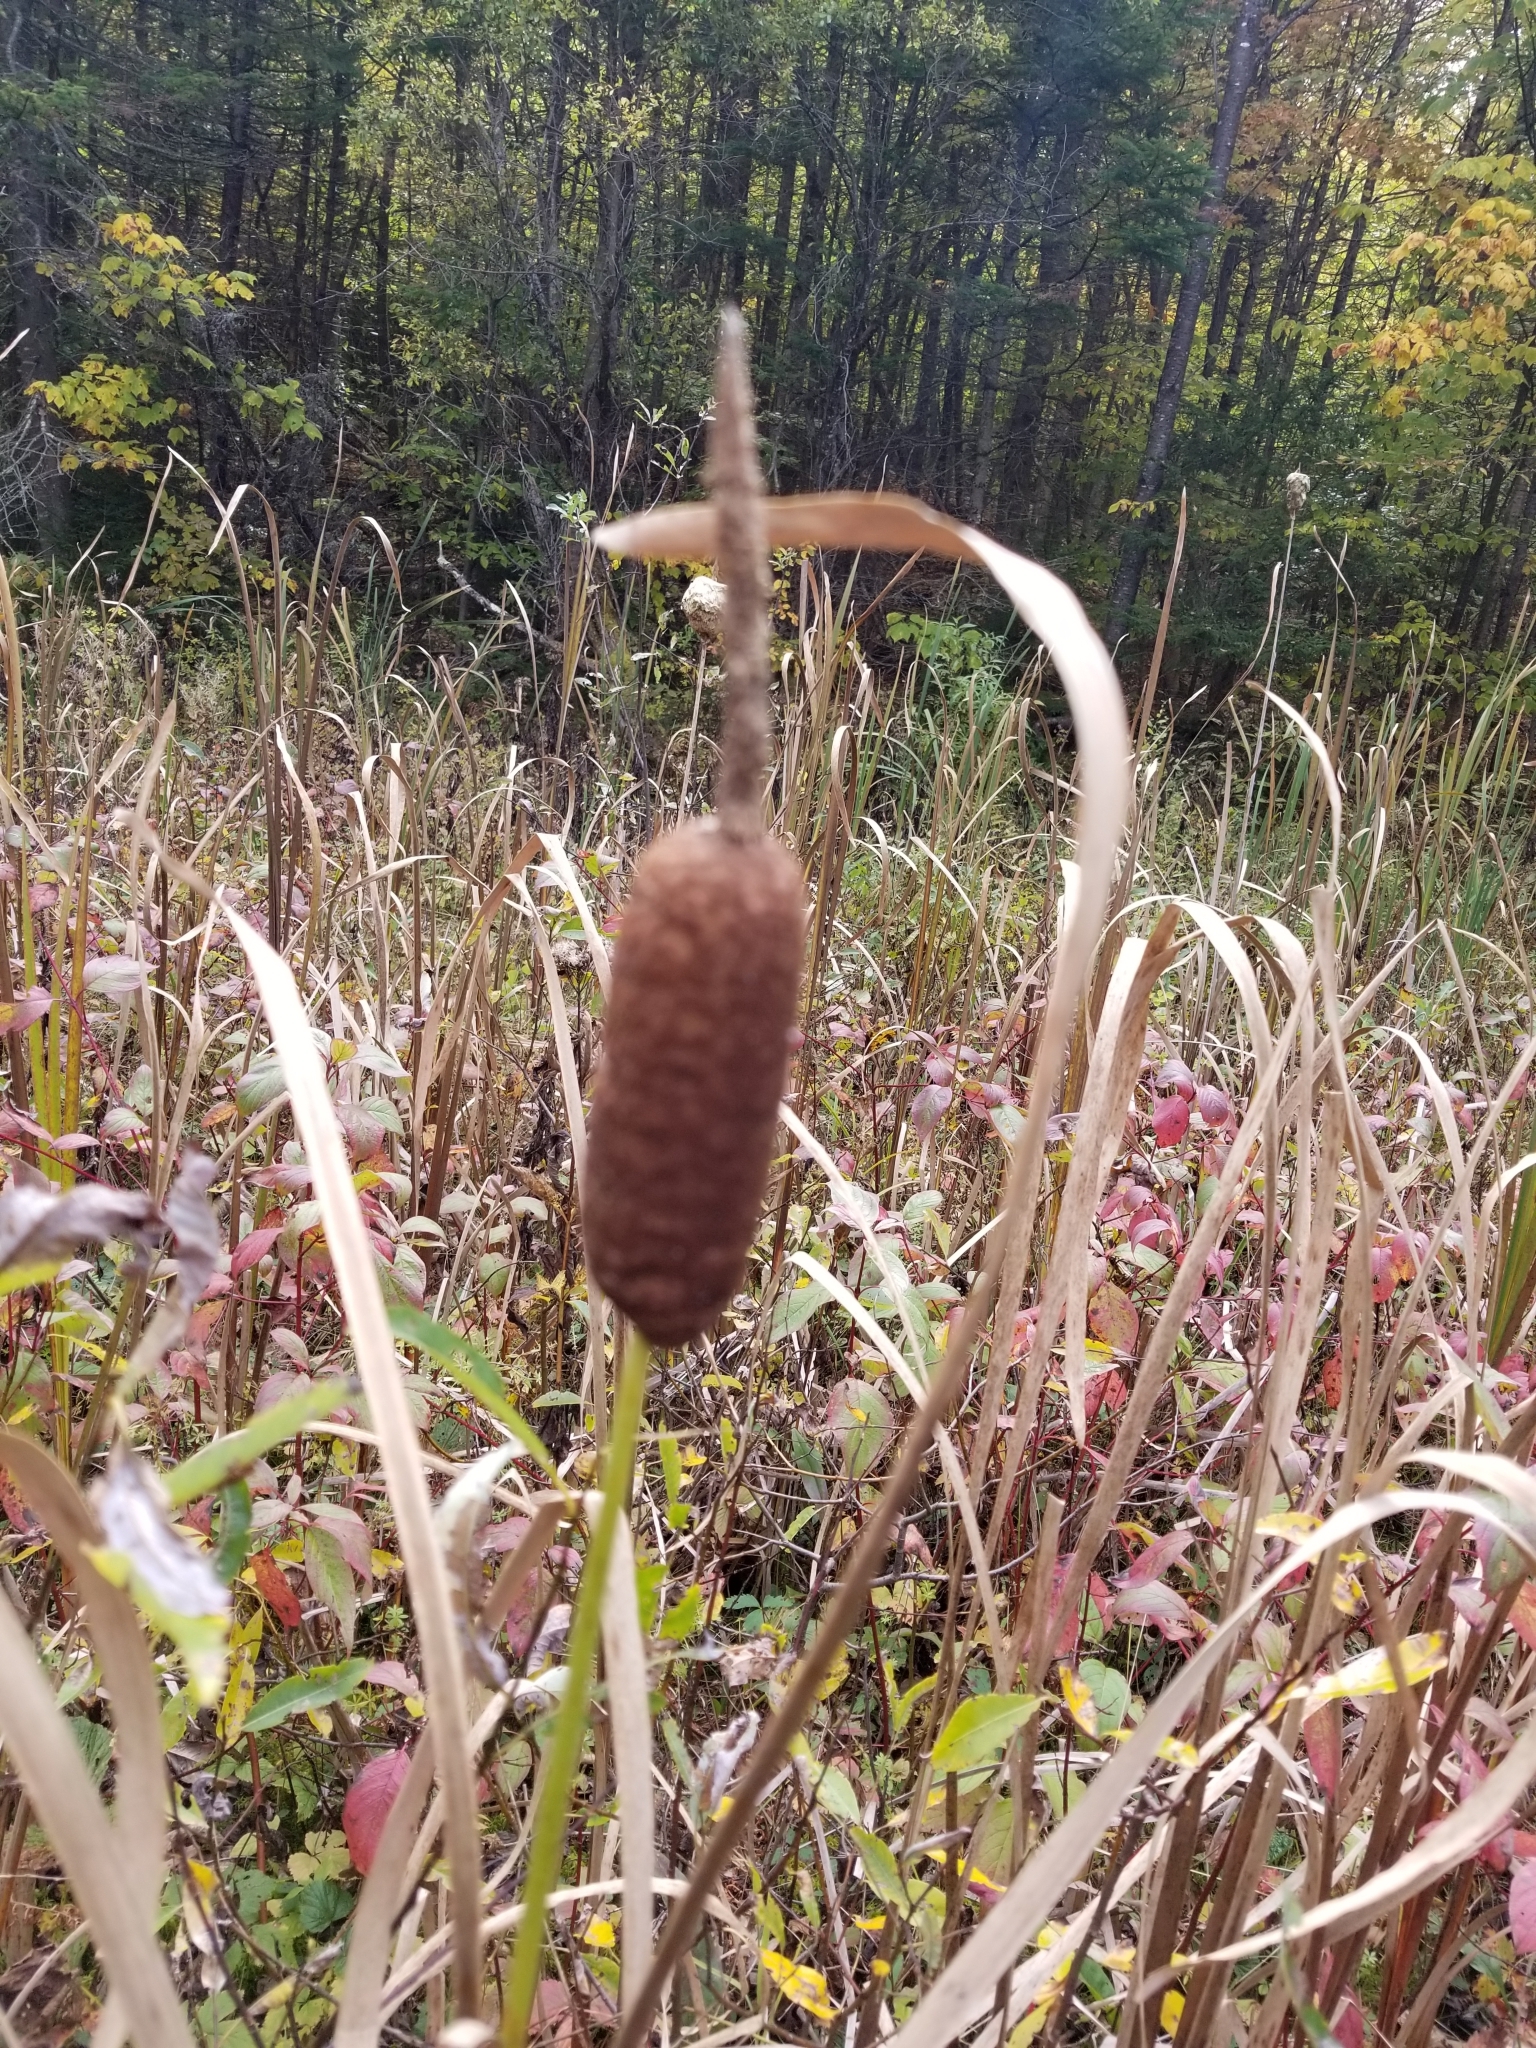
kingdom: Plantae
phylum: Tracheophyta
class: Liliopsida
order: Poales
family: Typhaceae
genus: Typha
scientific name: Typha latifolia
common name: Broadleaf cattail
